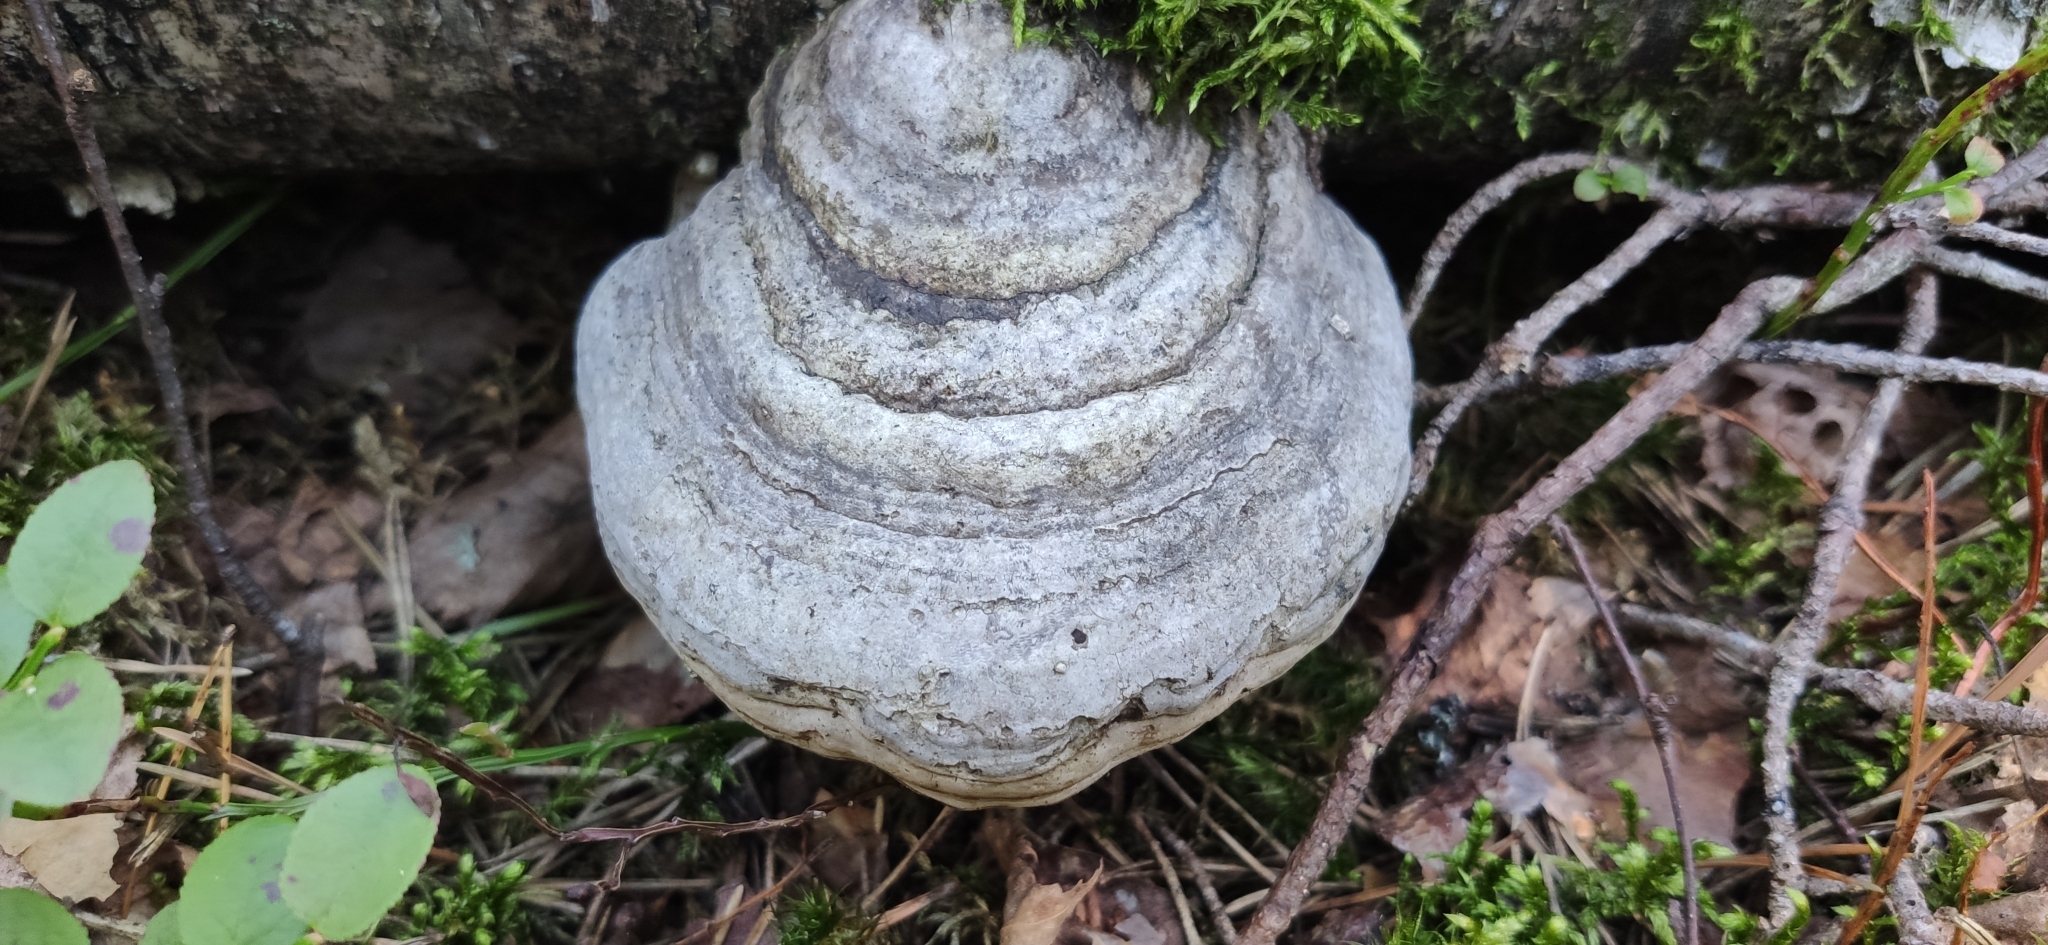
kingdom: Fungi
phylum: Basidiomycota
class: Agaricomycetes
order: Polyporales
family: Polyporaceae
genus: Fomes
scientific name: Fomes fomentarius
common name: Hoof fungus
